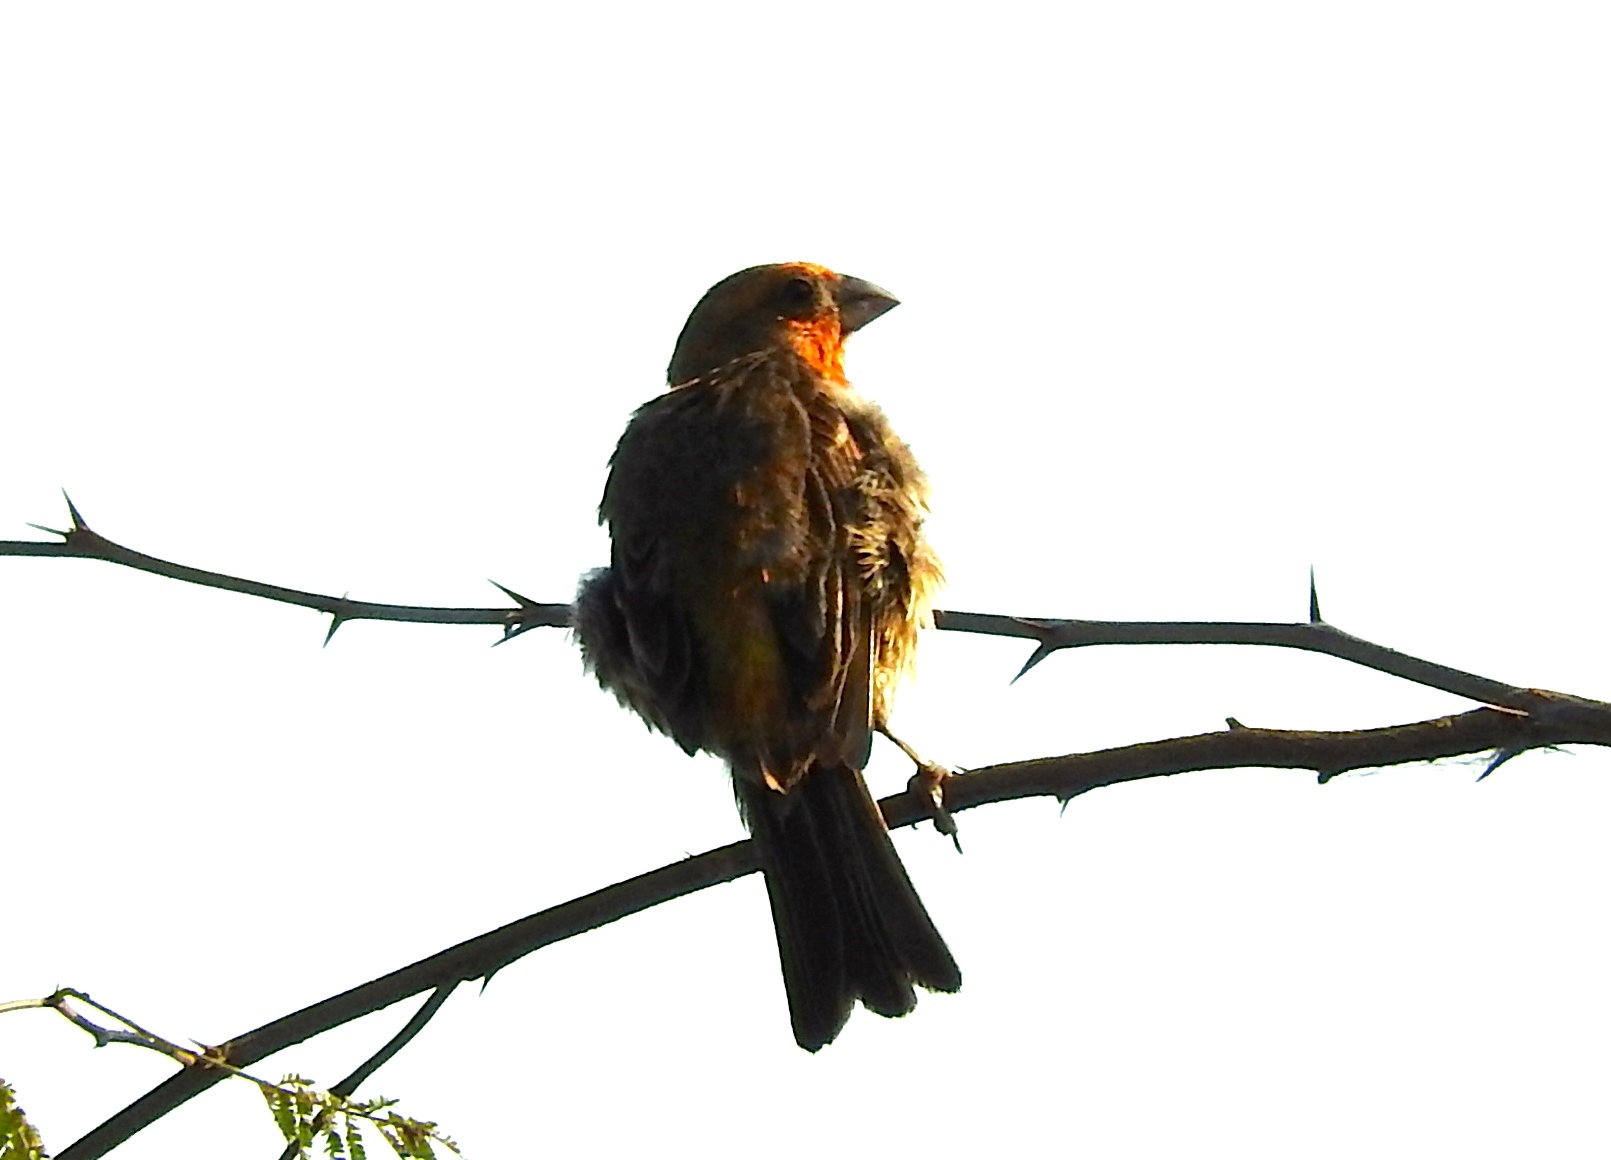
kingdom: Animalia
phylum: Chordata
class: Aves
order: Passeriformes
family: Fringillidae
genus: Haemorhous
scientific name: Haemorhous mexicanus
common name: House finch
